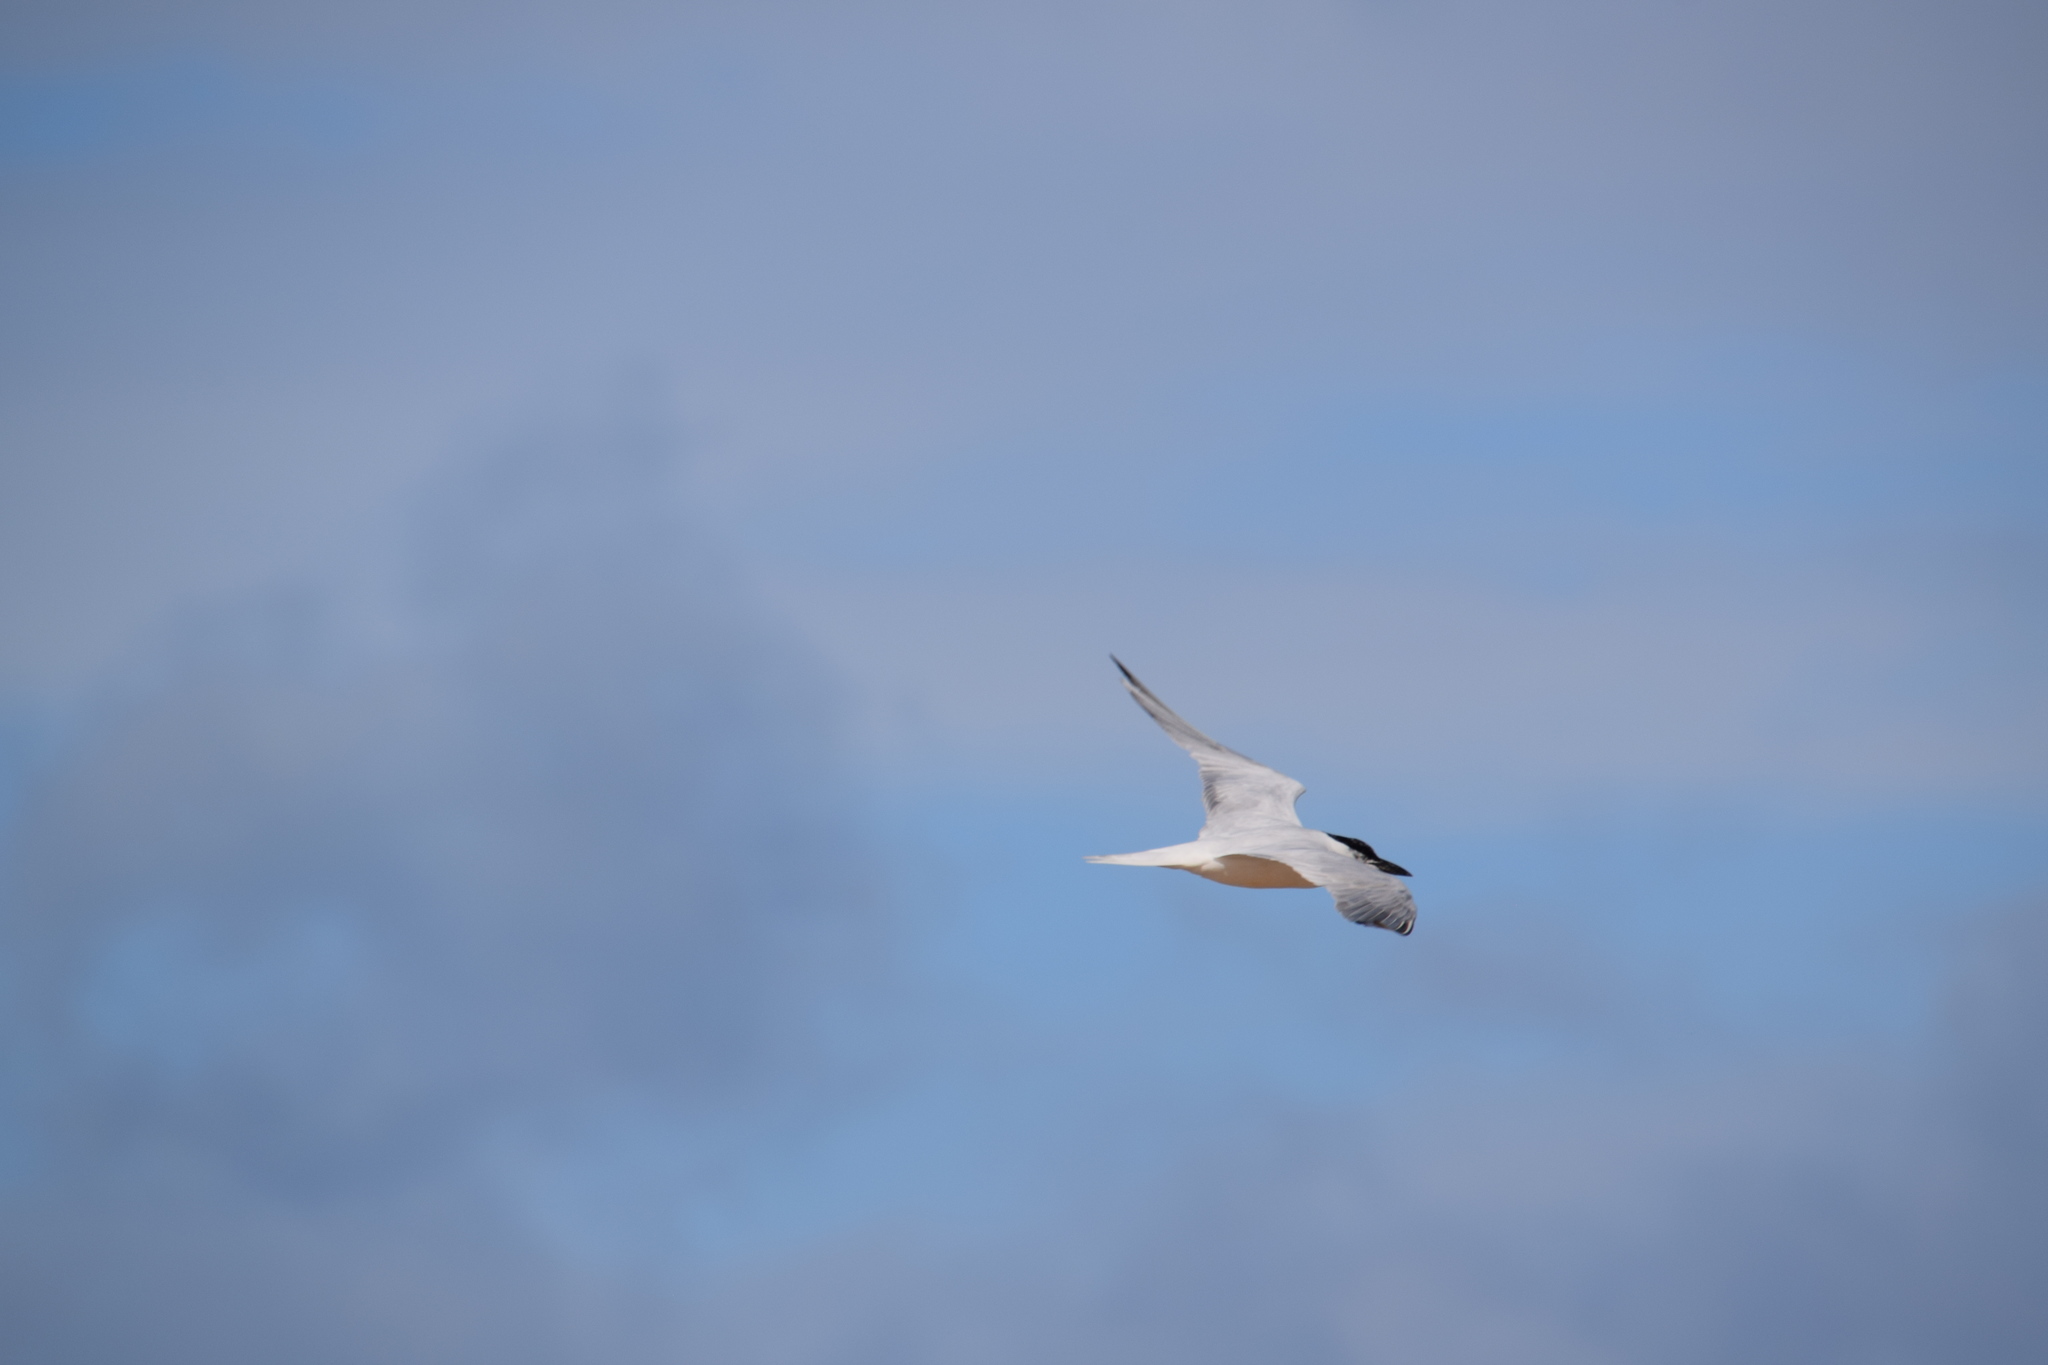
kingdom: Animalia
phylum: Chordata
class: Aves
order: Charadriiformes
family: Laridae
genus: Gelochelidon
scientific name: Gelochelidon macrotarsa
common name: Australian tern
